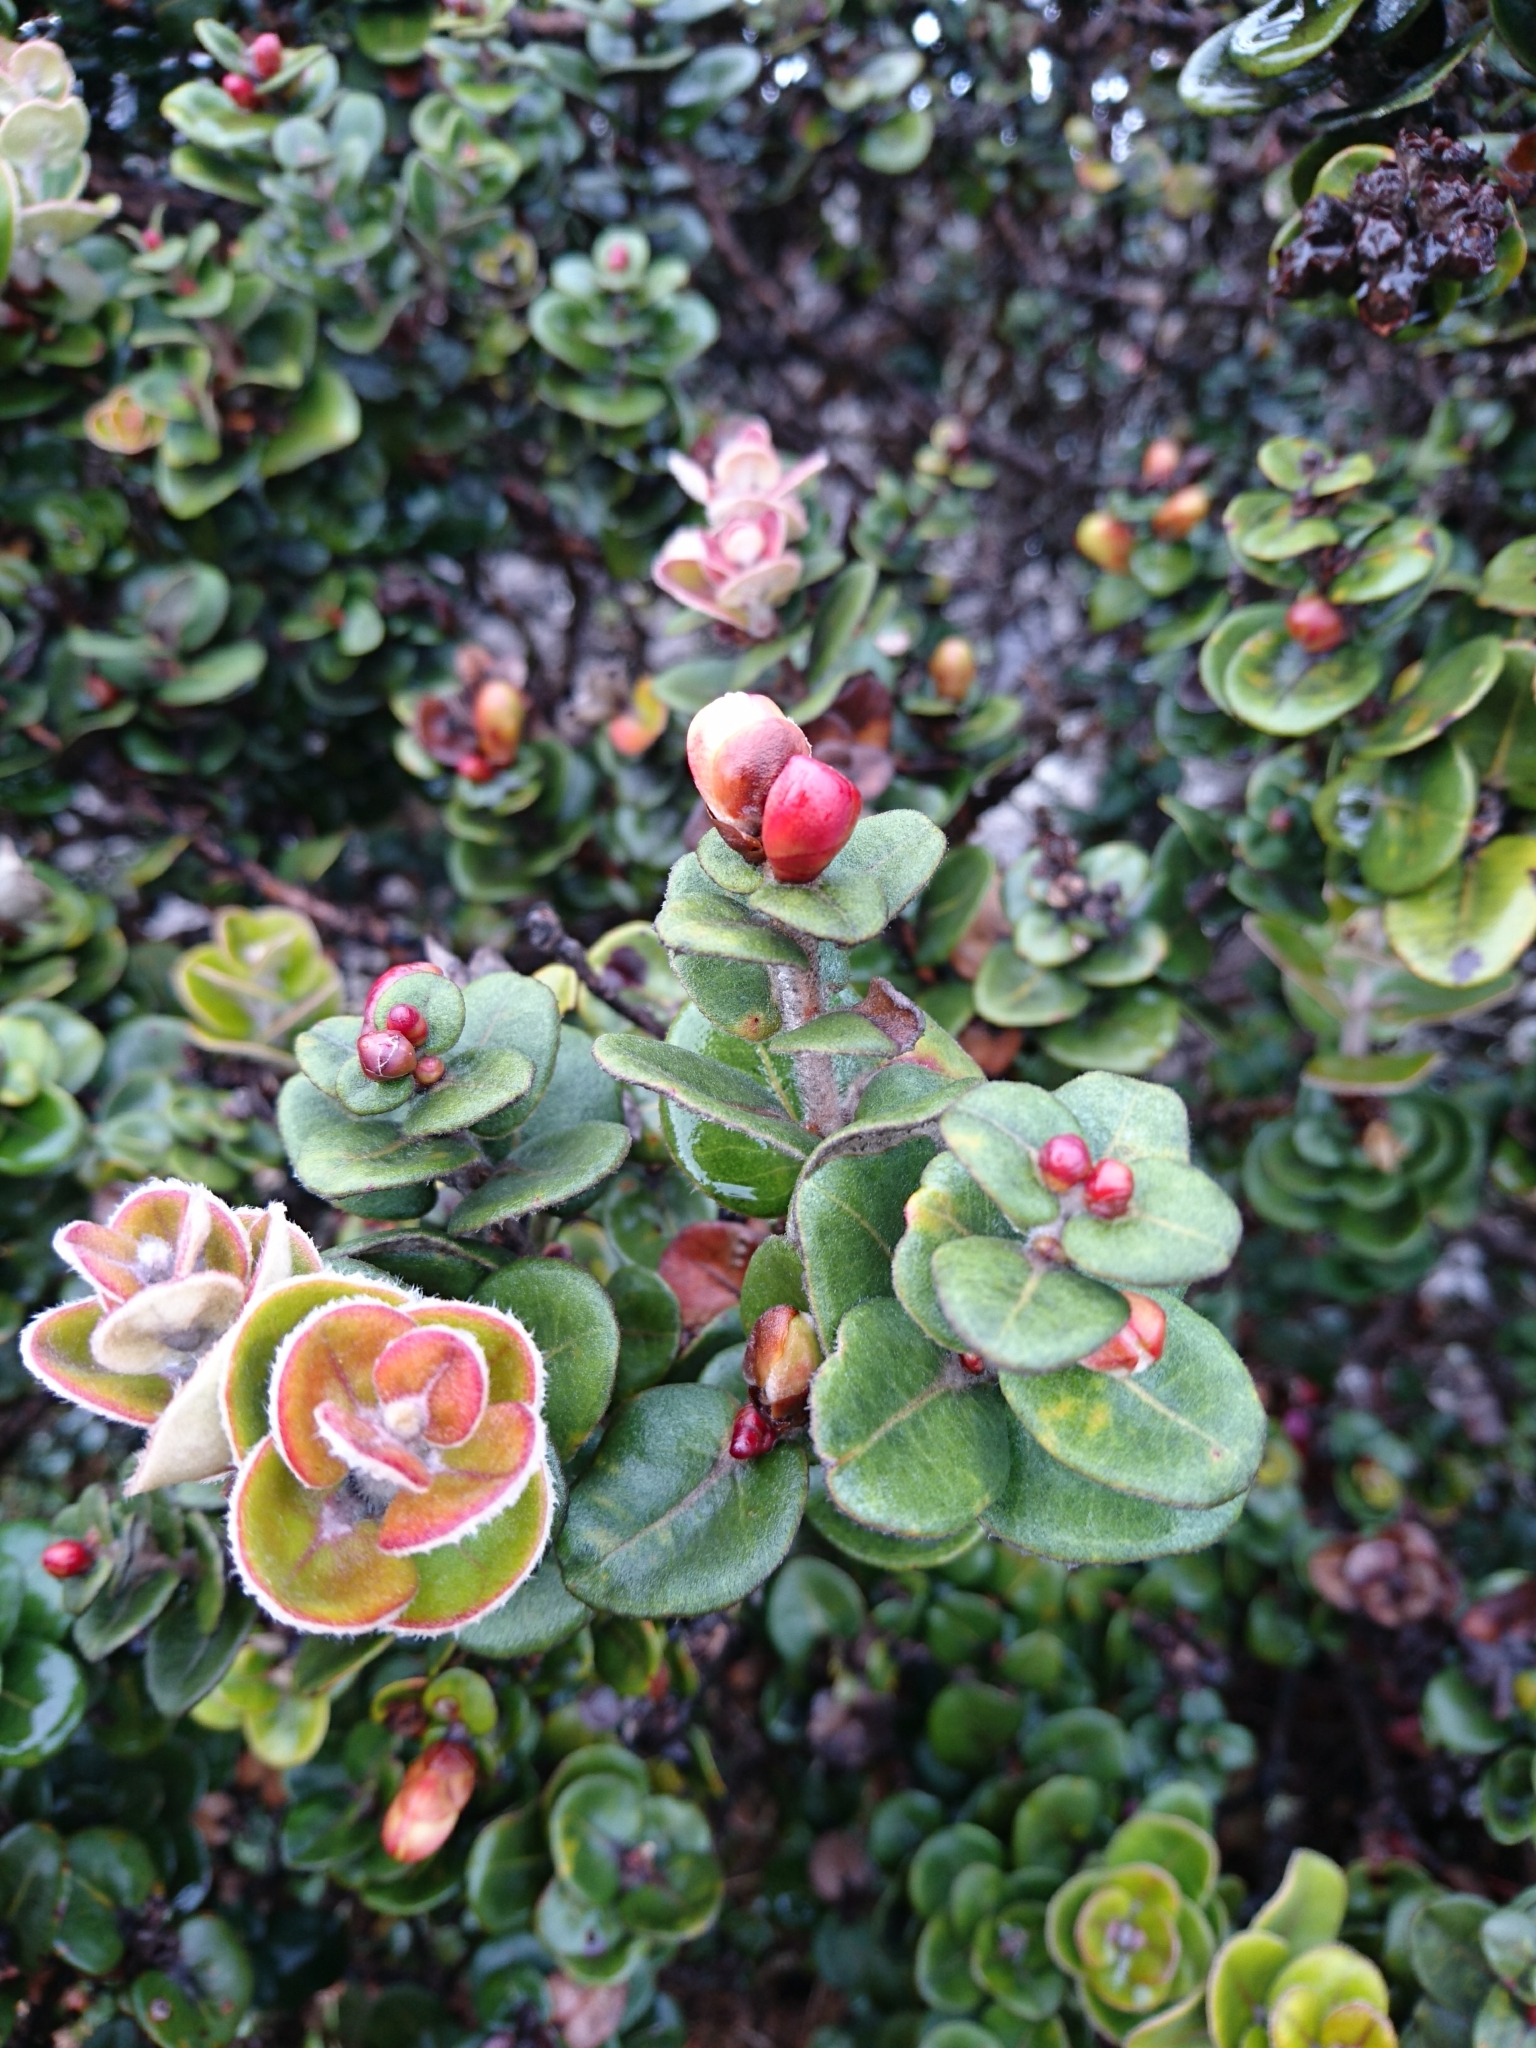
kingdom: Plantae
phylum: Tracheophyta
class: Magnoliopsida
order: Myrtales
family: Myrtaceae
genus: Metrosideros
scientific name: Metrosideros polymorpha
